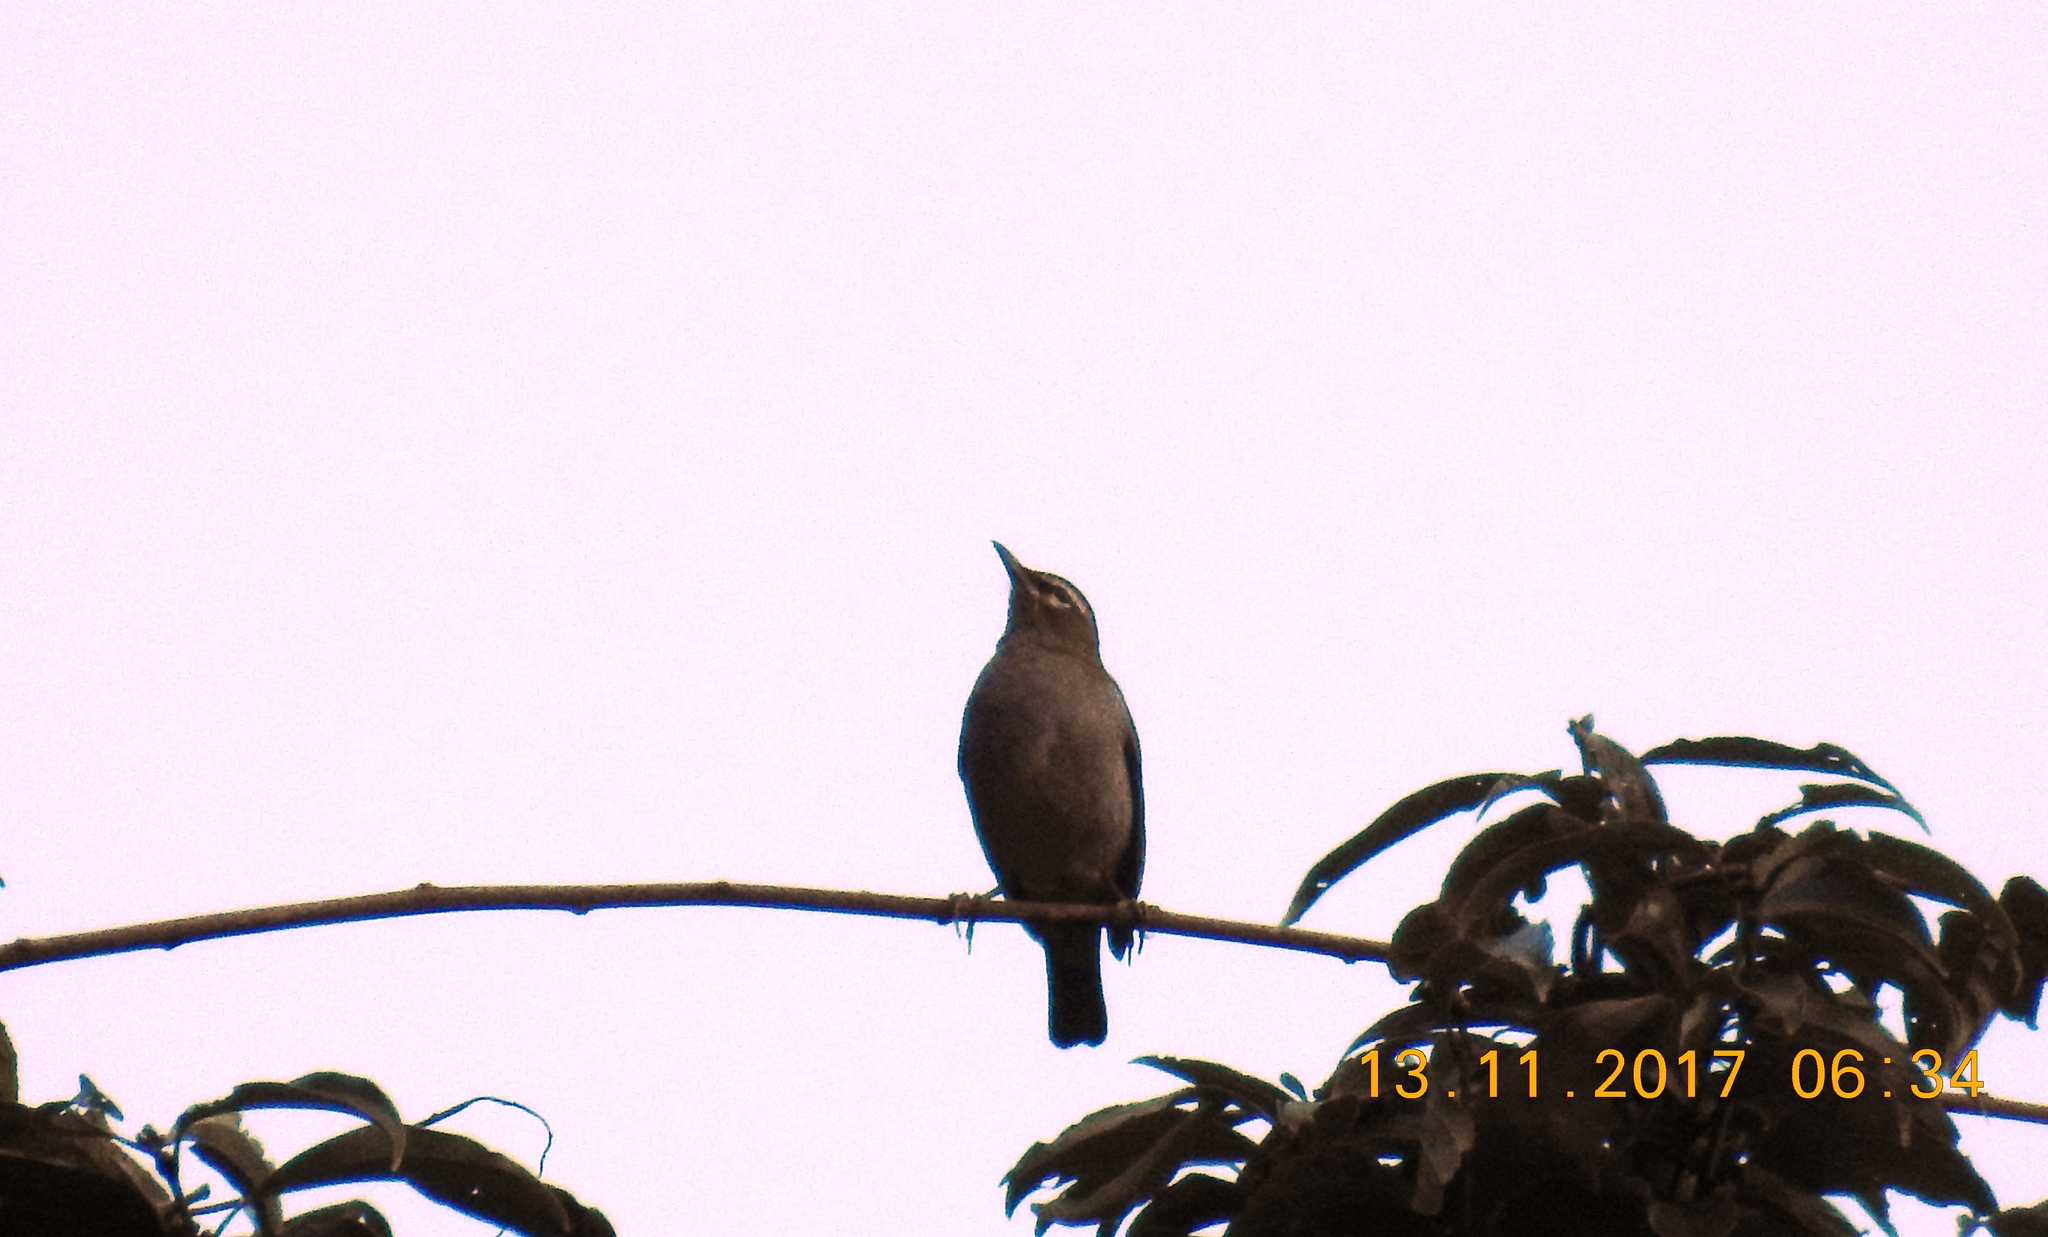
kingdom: Animalia
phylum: Chordata
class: Aves
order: Passeriformes
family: Turdidae
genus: Turdus
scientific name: Turdus obscurus
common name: Eyebrowed thrush
